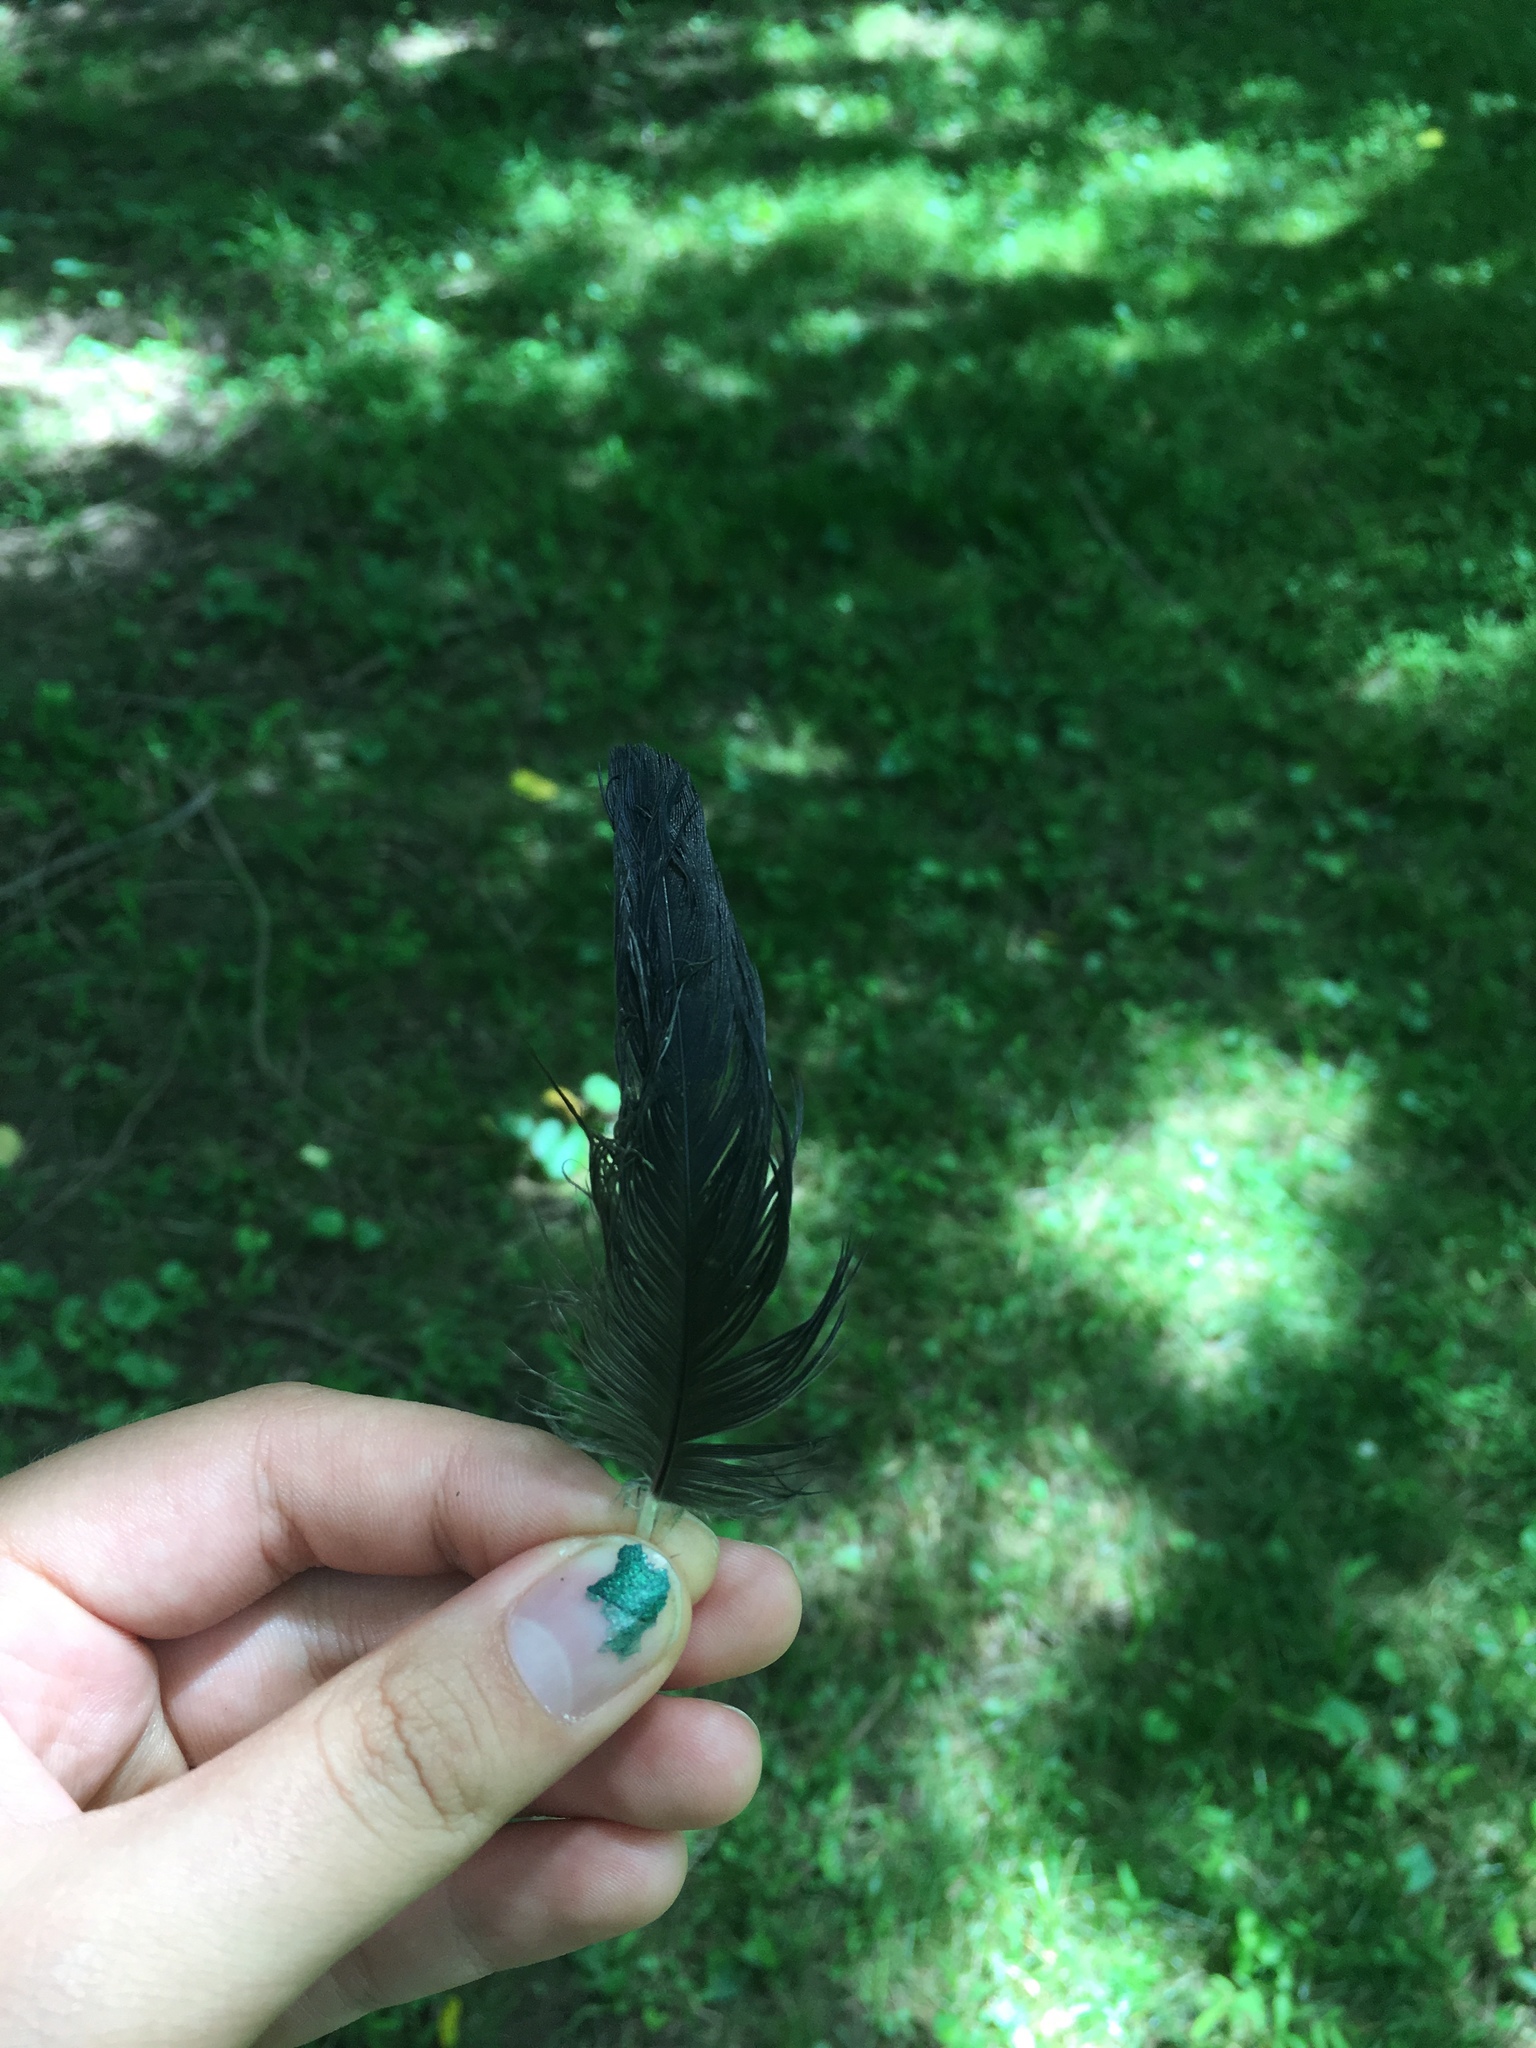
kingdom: Animalia
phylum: Chordata
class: Aves
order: Passeriformes
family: Corvidae
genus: Corvus
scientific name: Corvus brachyrhynchos
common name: American crow
